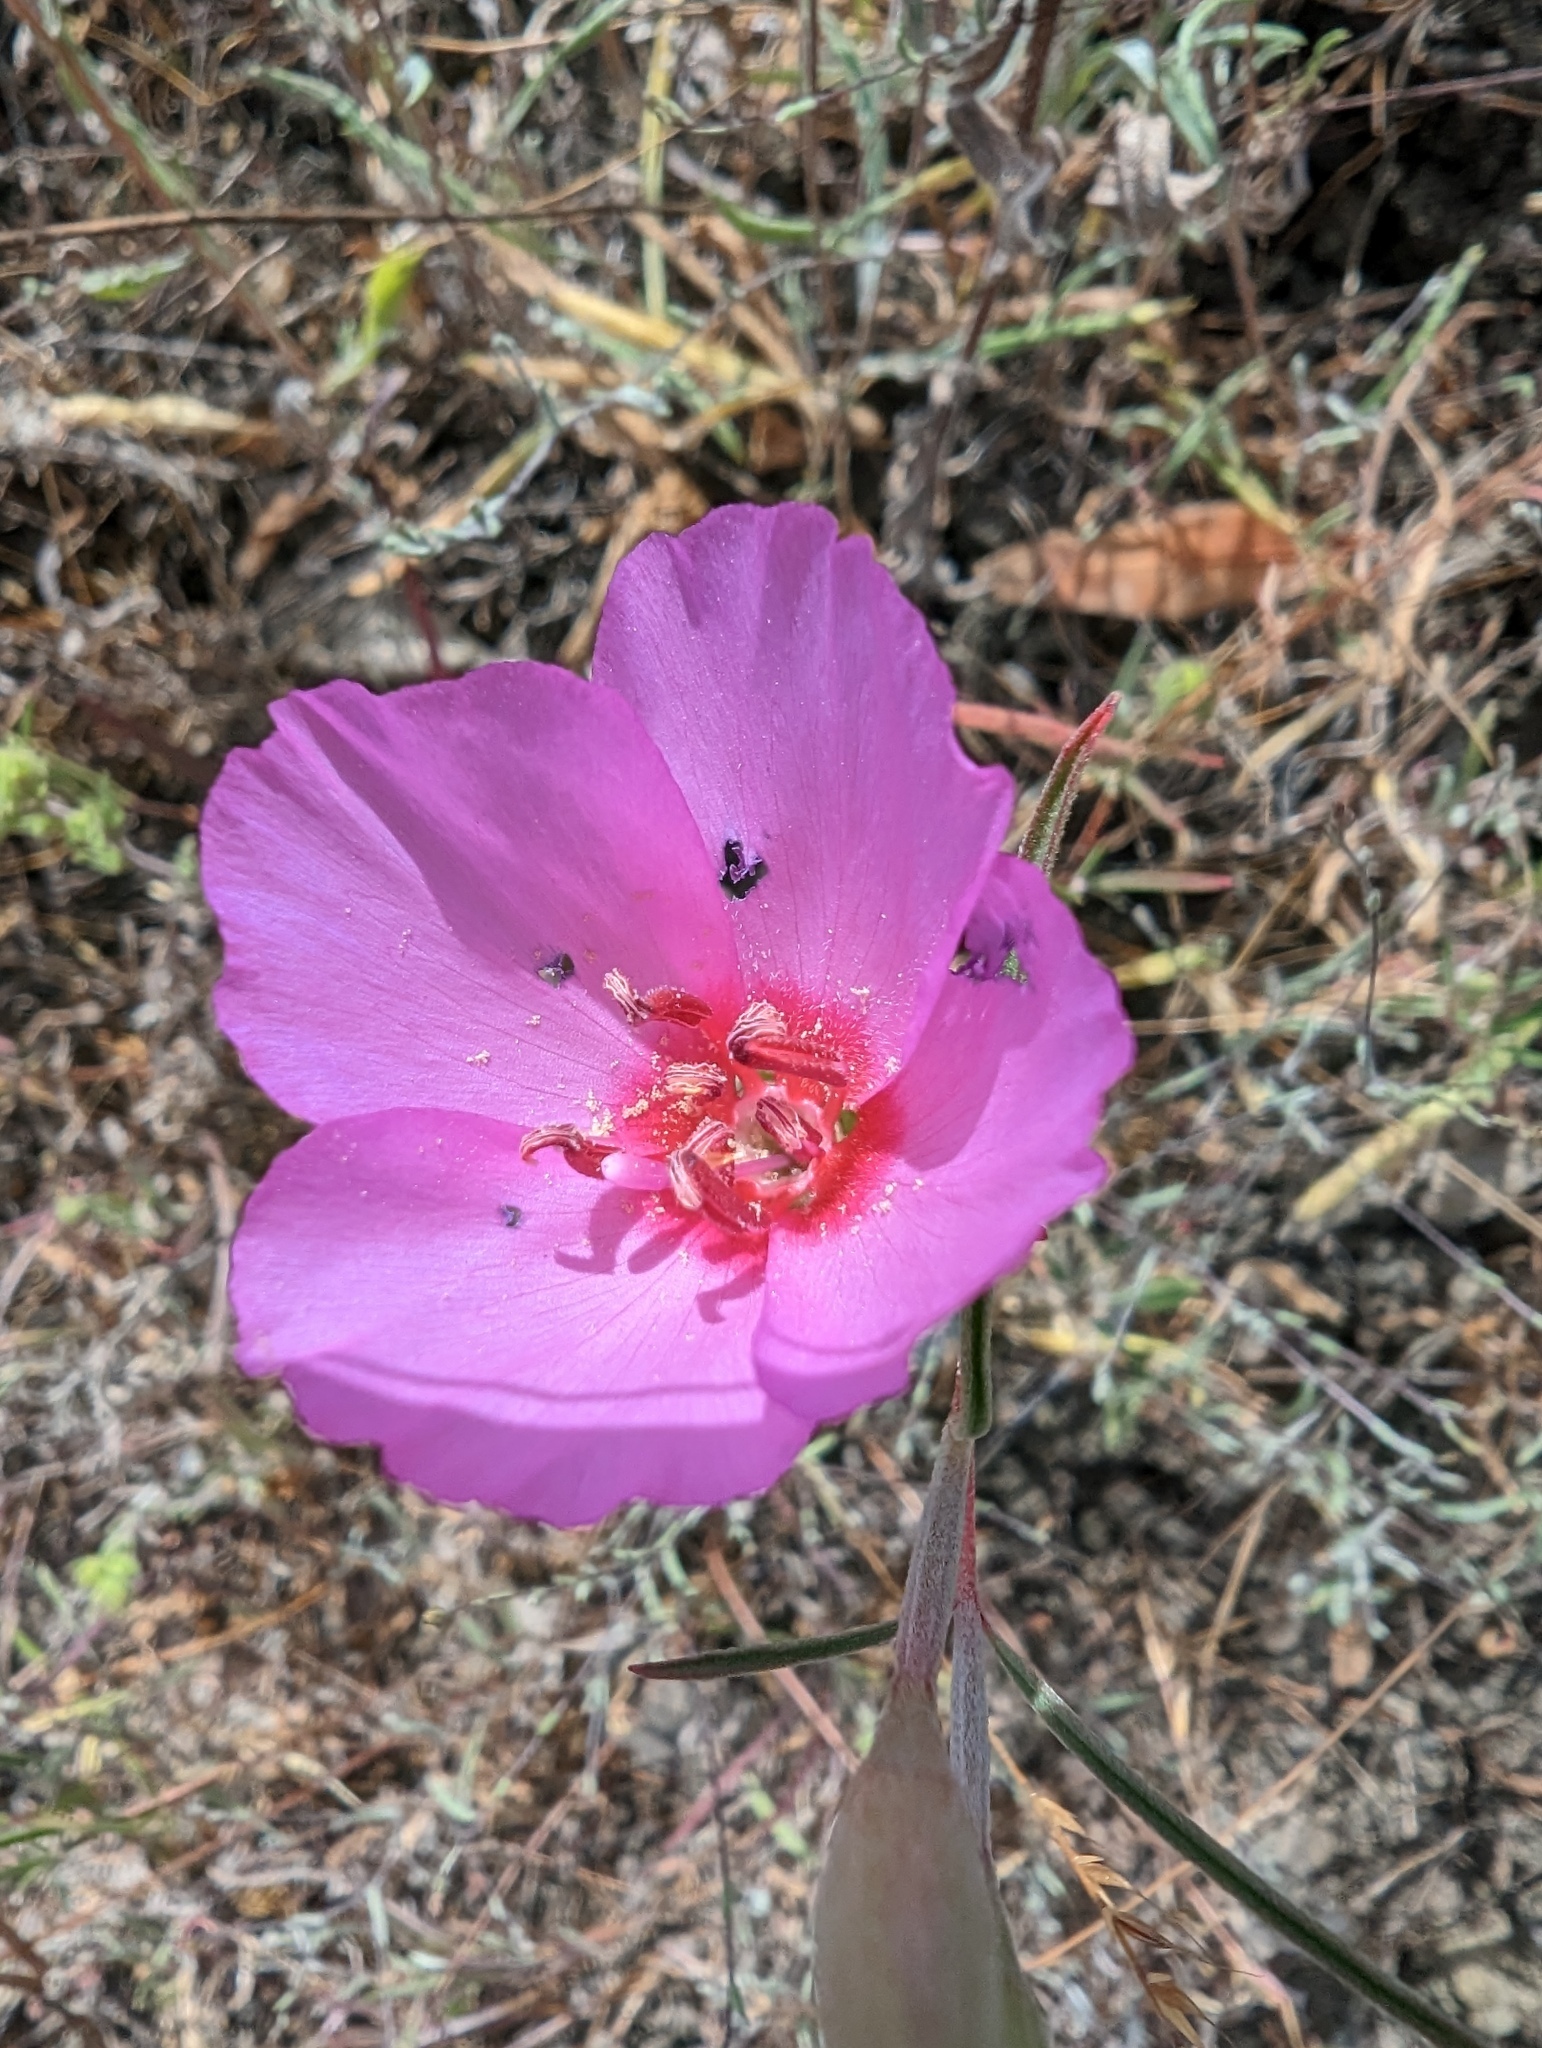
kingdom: Plantae
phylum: Tracheophyta
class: Magnoliopsida
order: Myrtales
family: Onagraceae
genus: Clarkia
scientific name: Clarkia rubicunda
